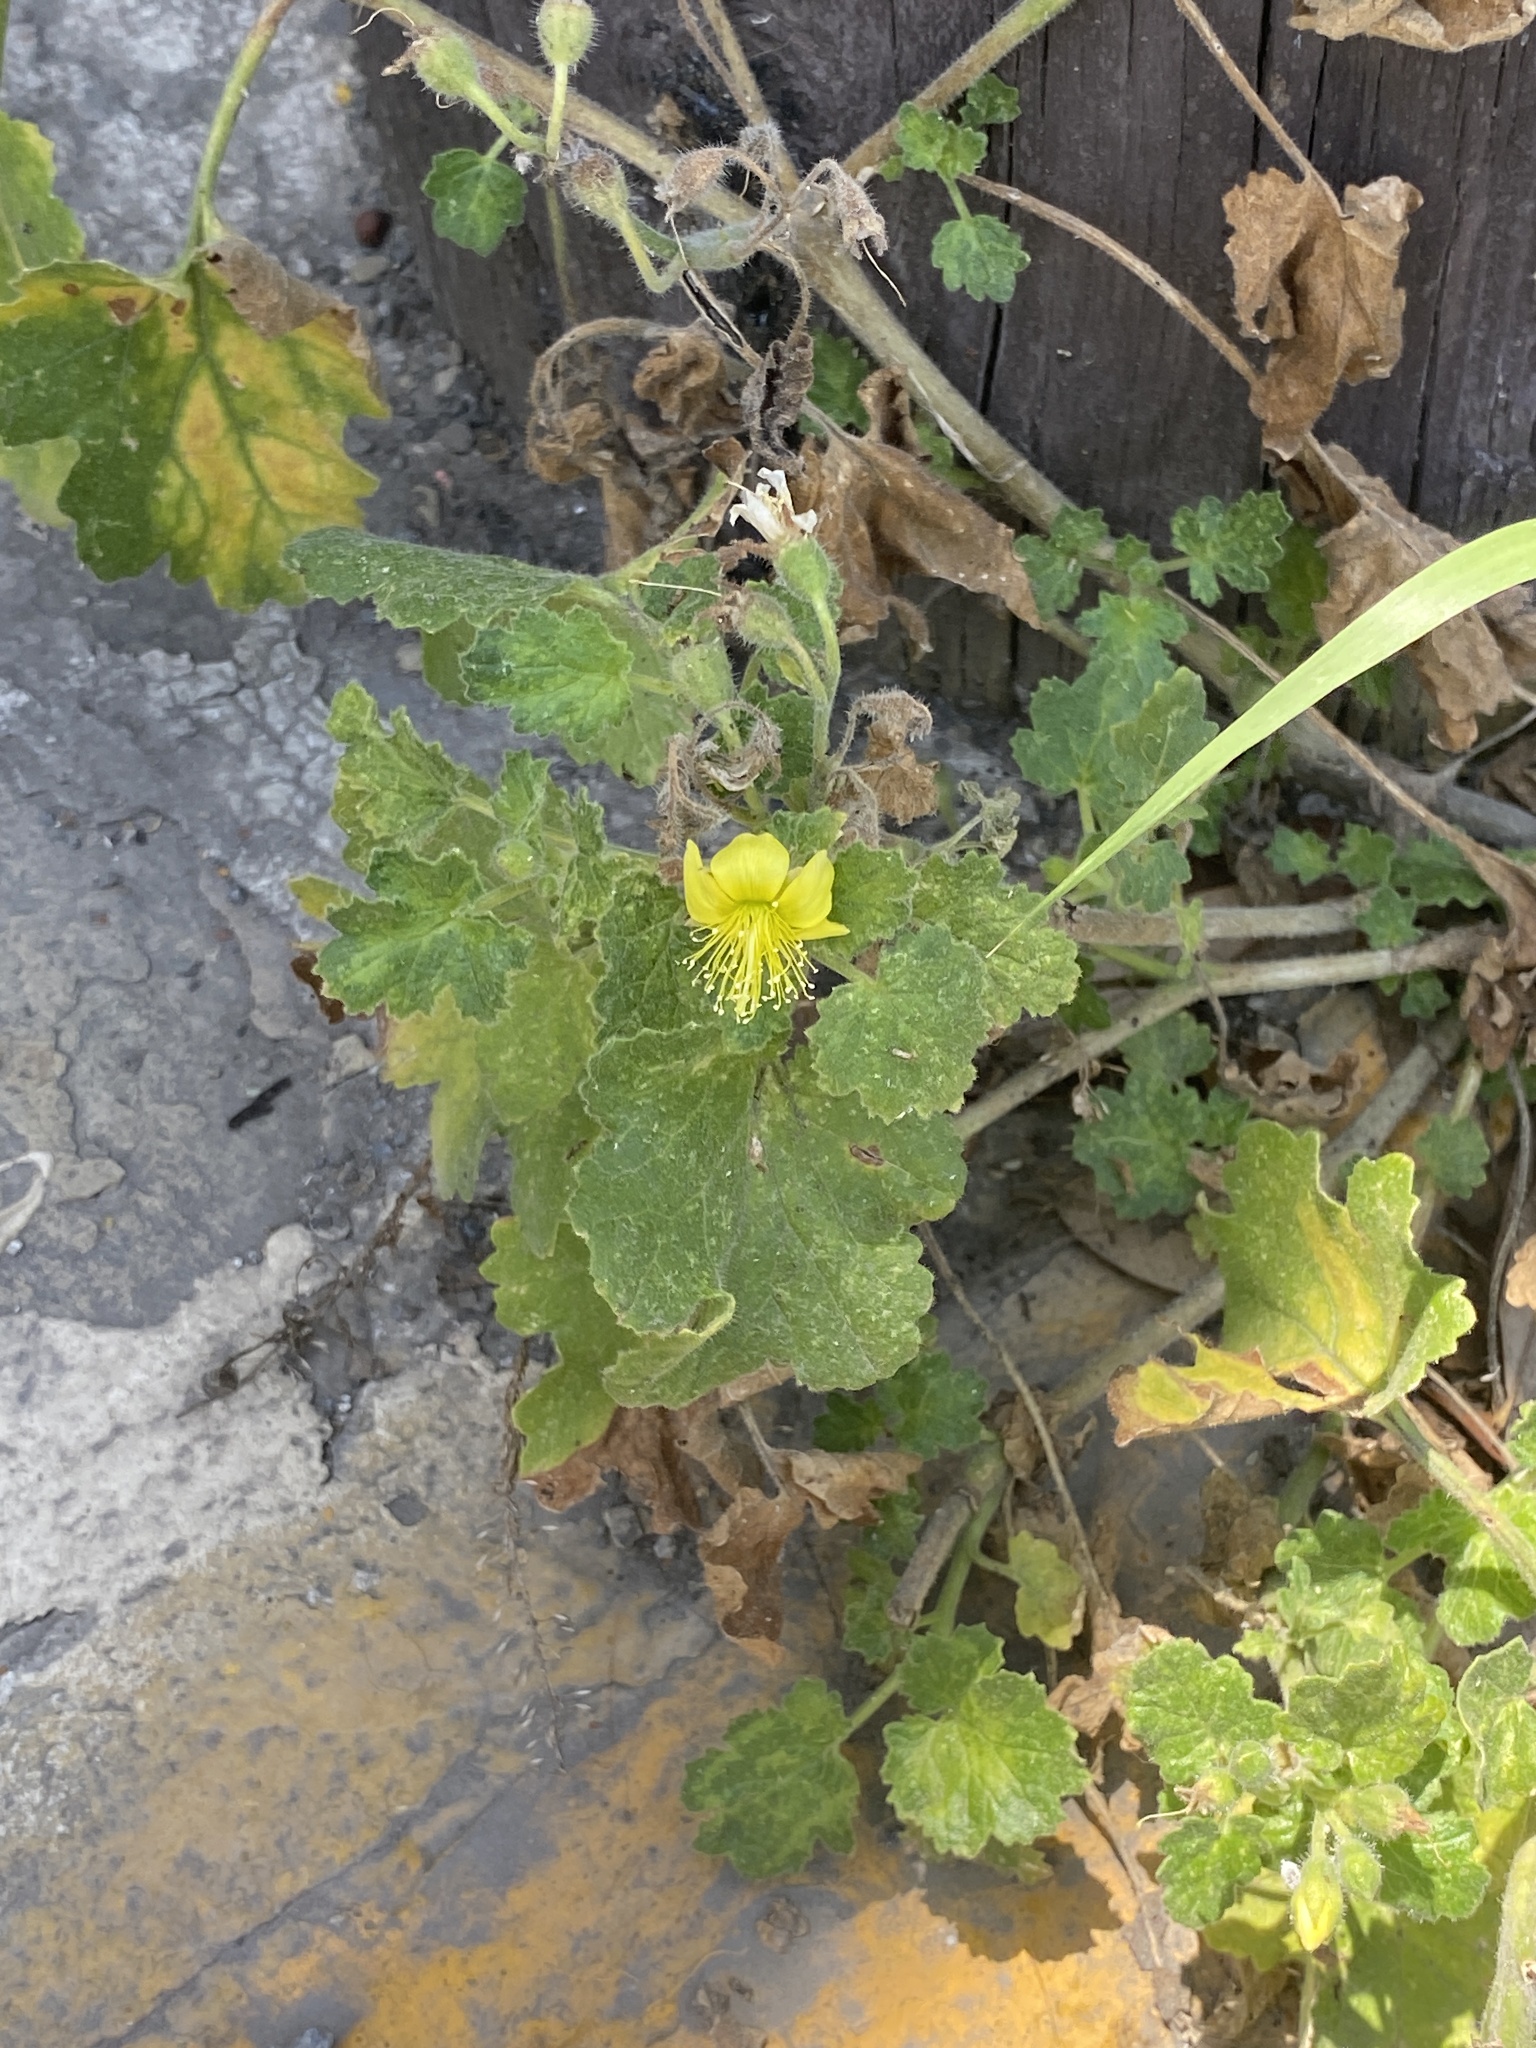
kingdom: Plantae
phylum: Tracheophyta
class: Magnoliopsida
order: Cornales
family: Loasaceae
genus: Eucnide
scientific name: Eucnide lobata
